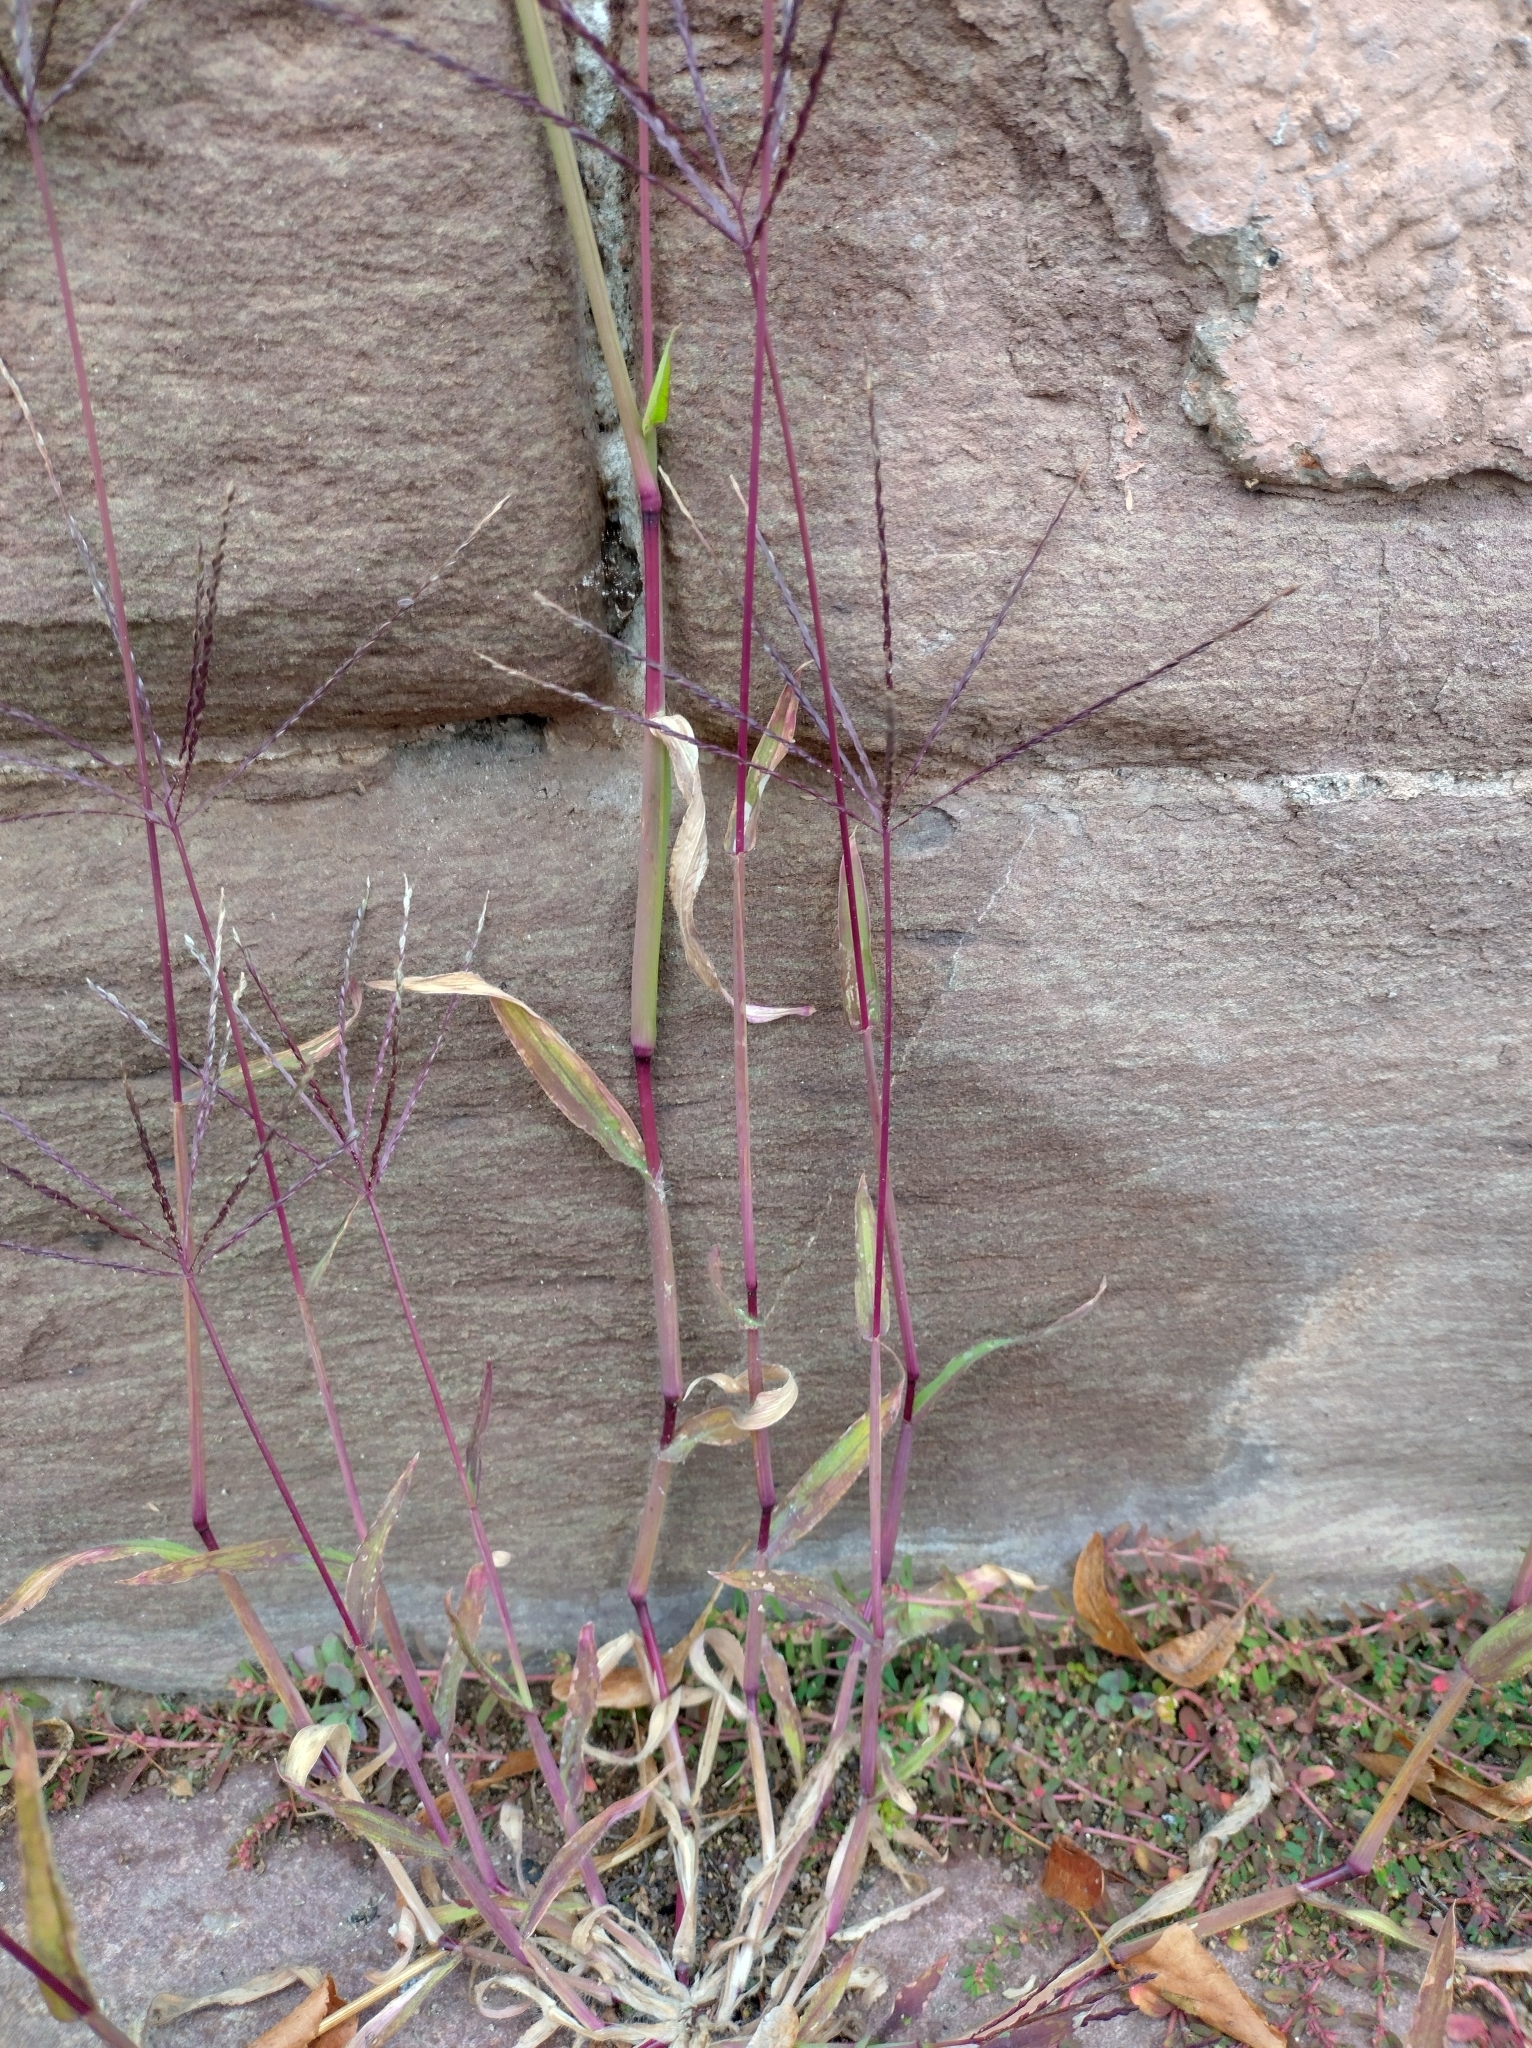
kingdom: Plantae
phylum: Tracheophyta
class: Liliopsida
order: Poales
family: Poaceae
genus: Digitaria
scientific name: Digitaria sanguinalis
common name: Hairy crabgrass
